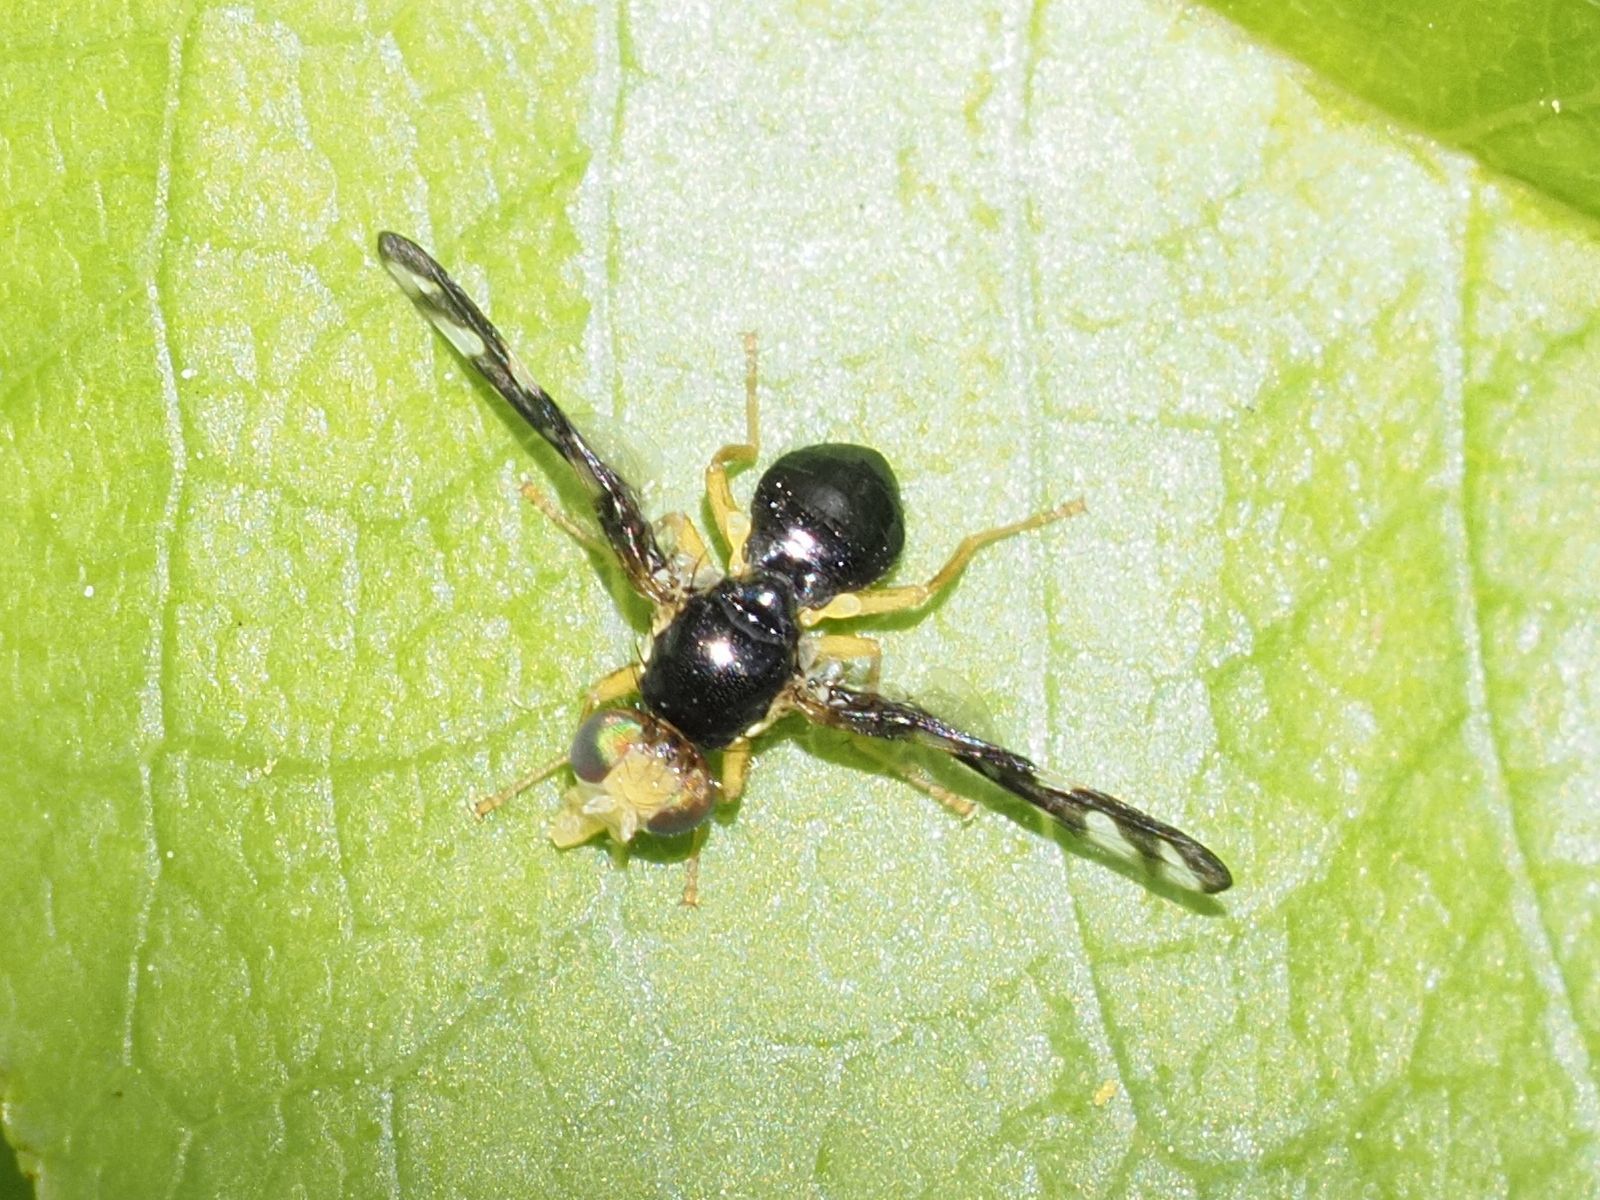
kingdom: Animalia
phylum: Arthropoda
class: Insecta
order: Diptera
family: Tephritidae
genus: Euleia
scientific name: Euleia heraclei
